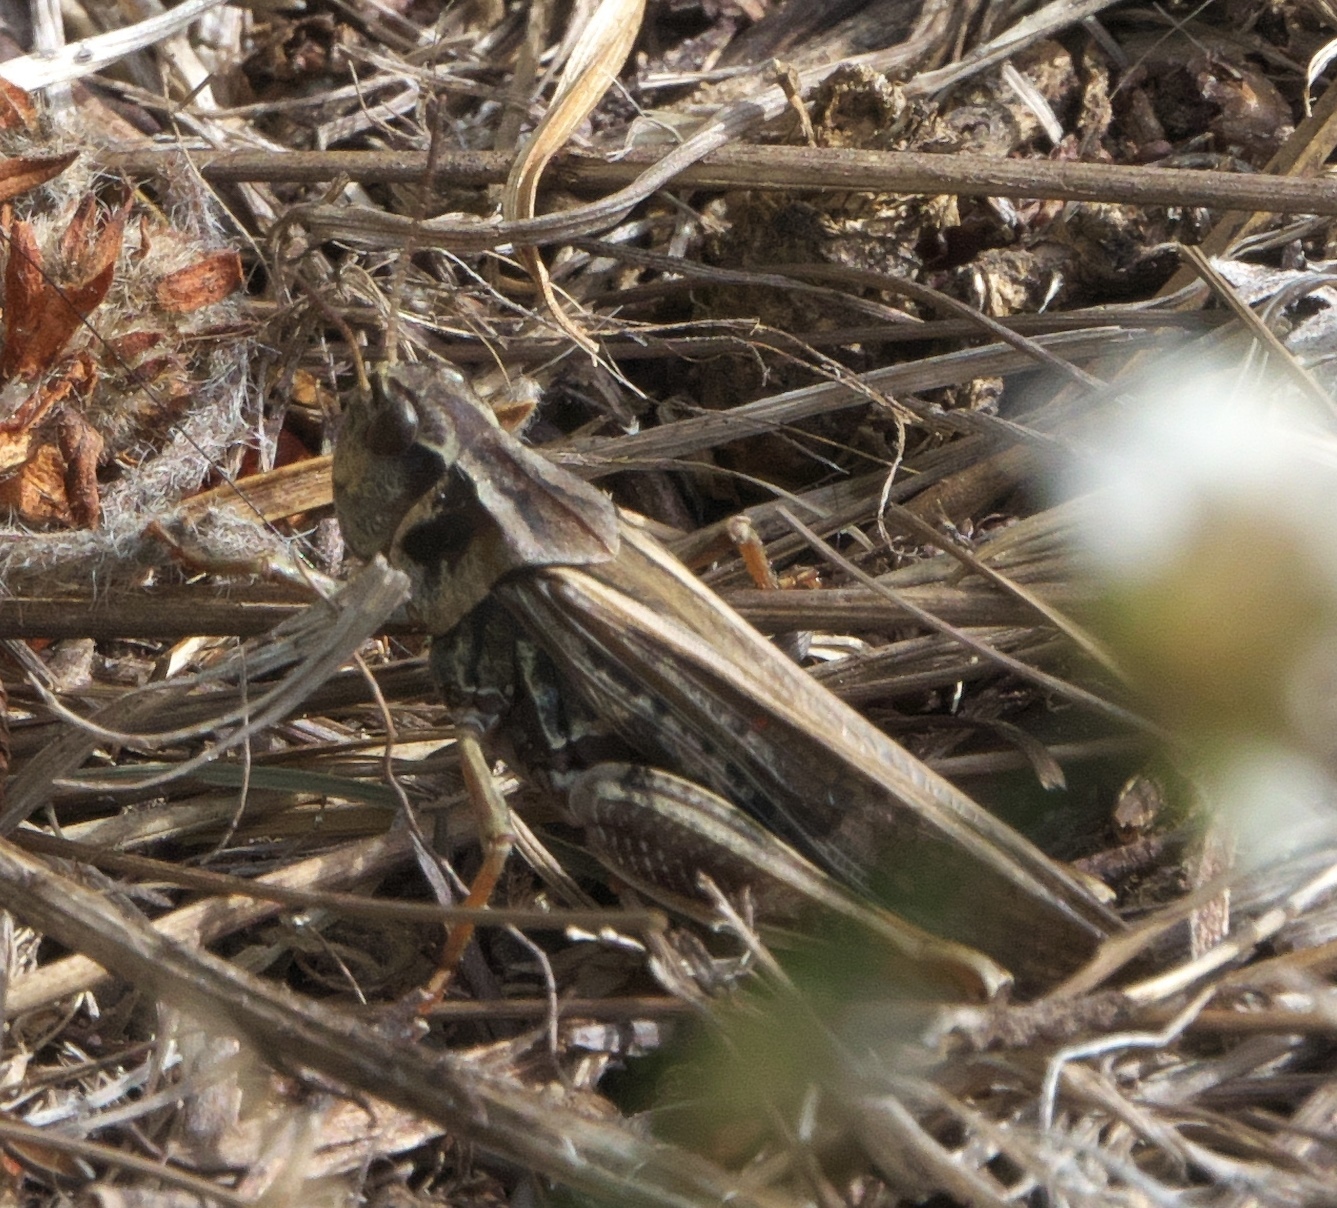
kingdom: Animalia
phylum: Arthropoda
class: Insecta
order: Orthoptera
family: Acrididae
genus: Camnula
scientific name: Camnula pellucida
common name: Clear-winged grasshopper
